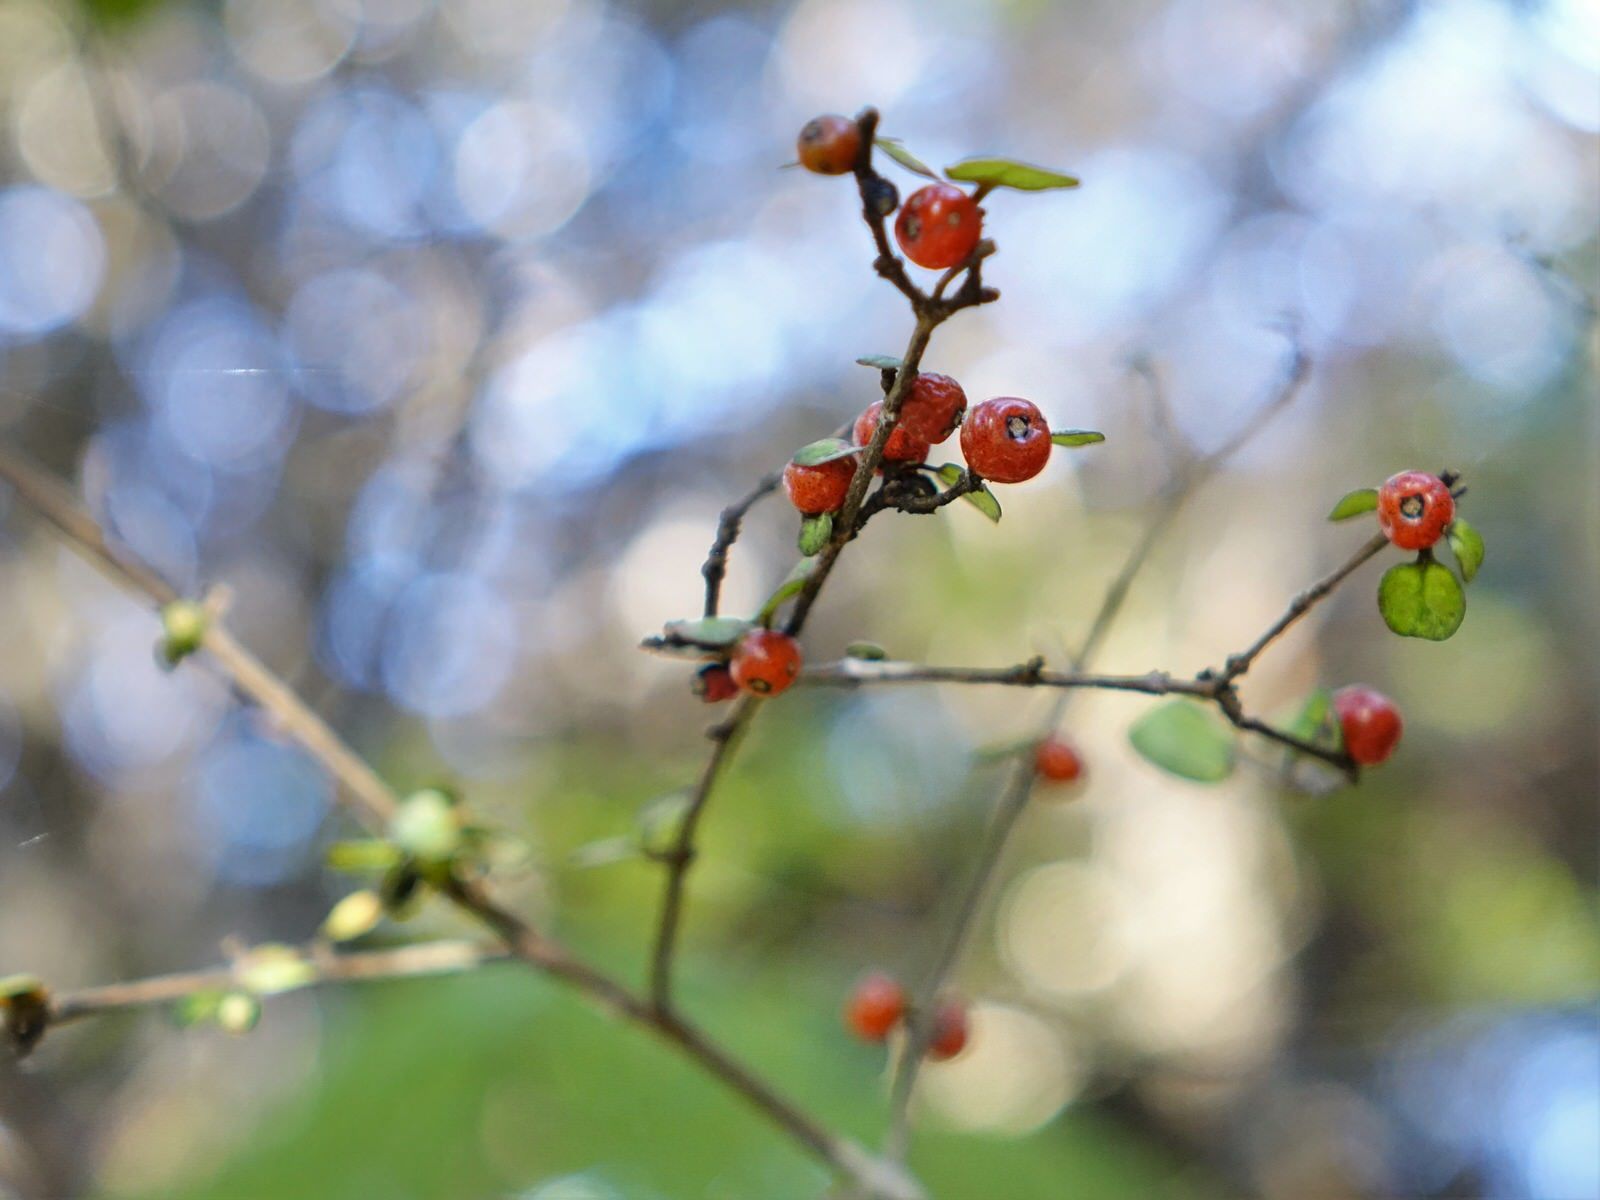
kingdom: Plantae
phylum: Tracheophyta
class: Magnoliopsida
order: Gentianales
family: Rubiaceae
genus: Coprosma
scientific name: Coprosma spathulata
